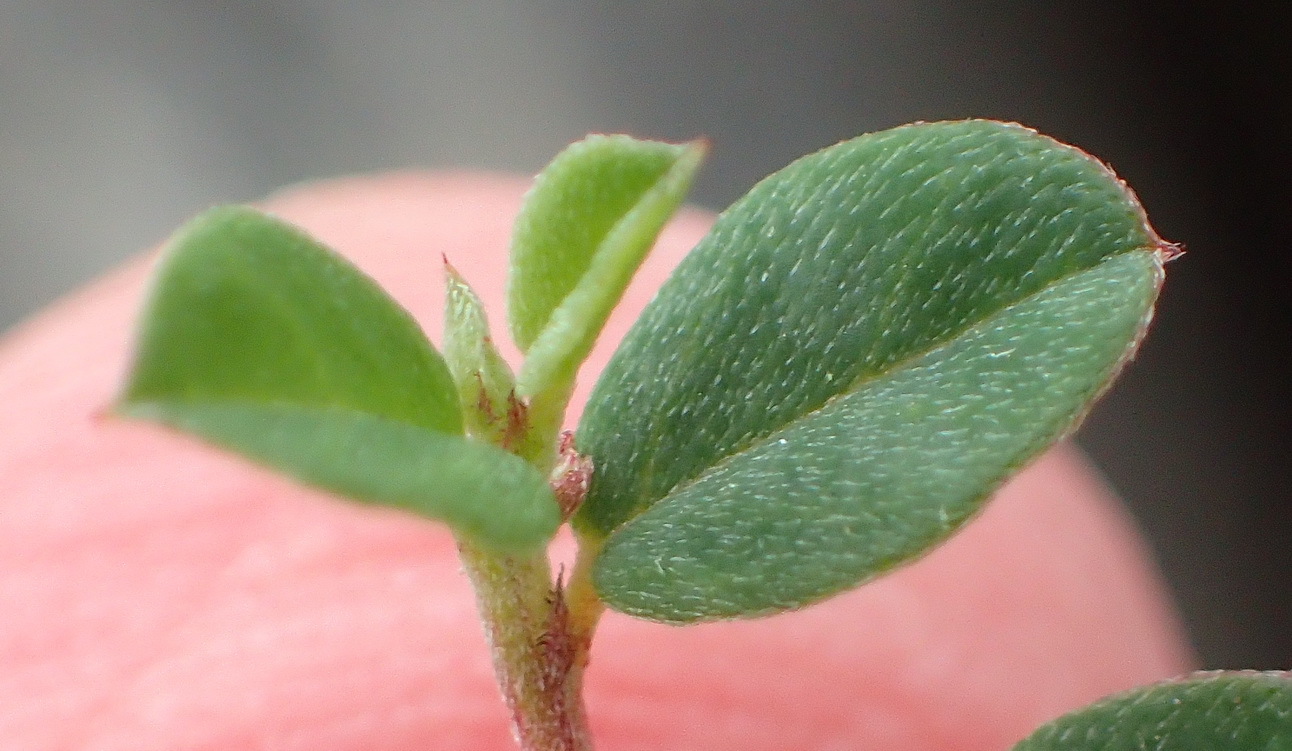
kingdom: Plantae
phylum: Tracheophyta
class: Magnoliopsida
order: Fabales
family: Fabaceae
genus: Indigofera
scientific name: Indigofera sarmentosa
